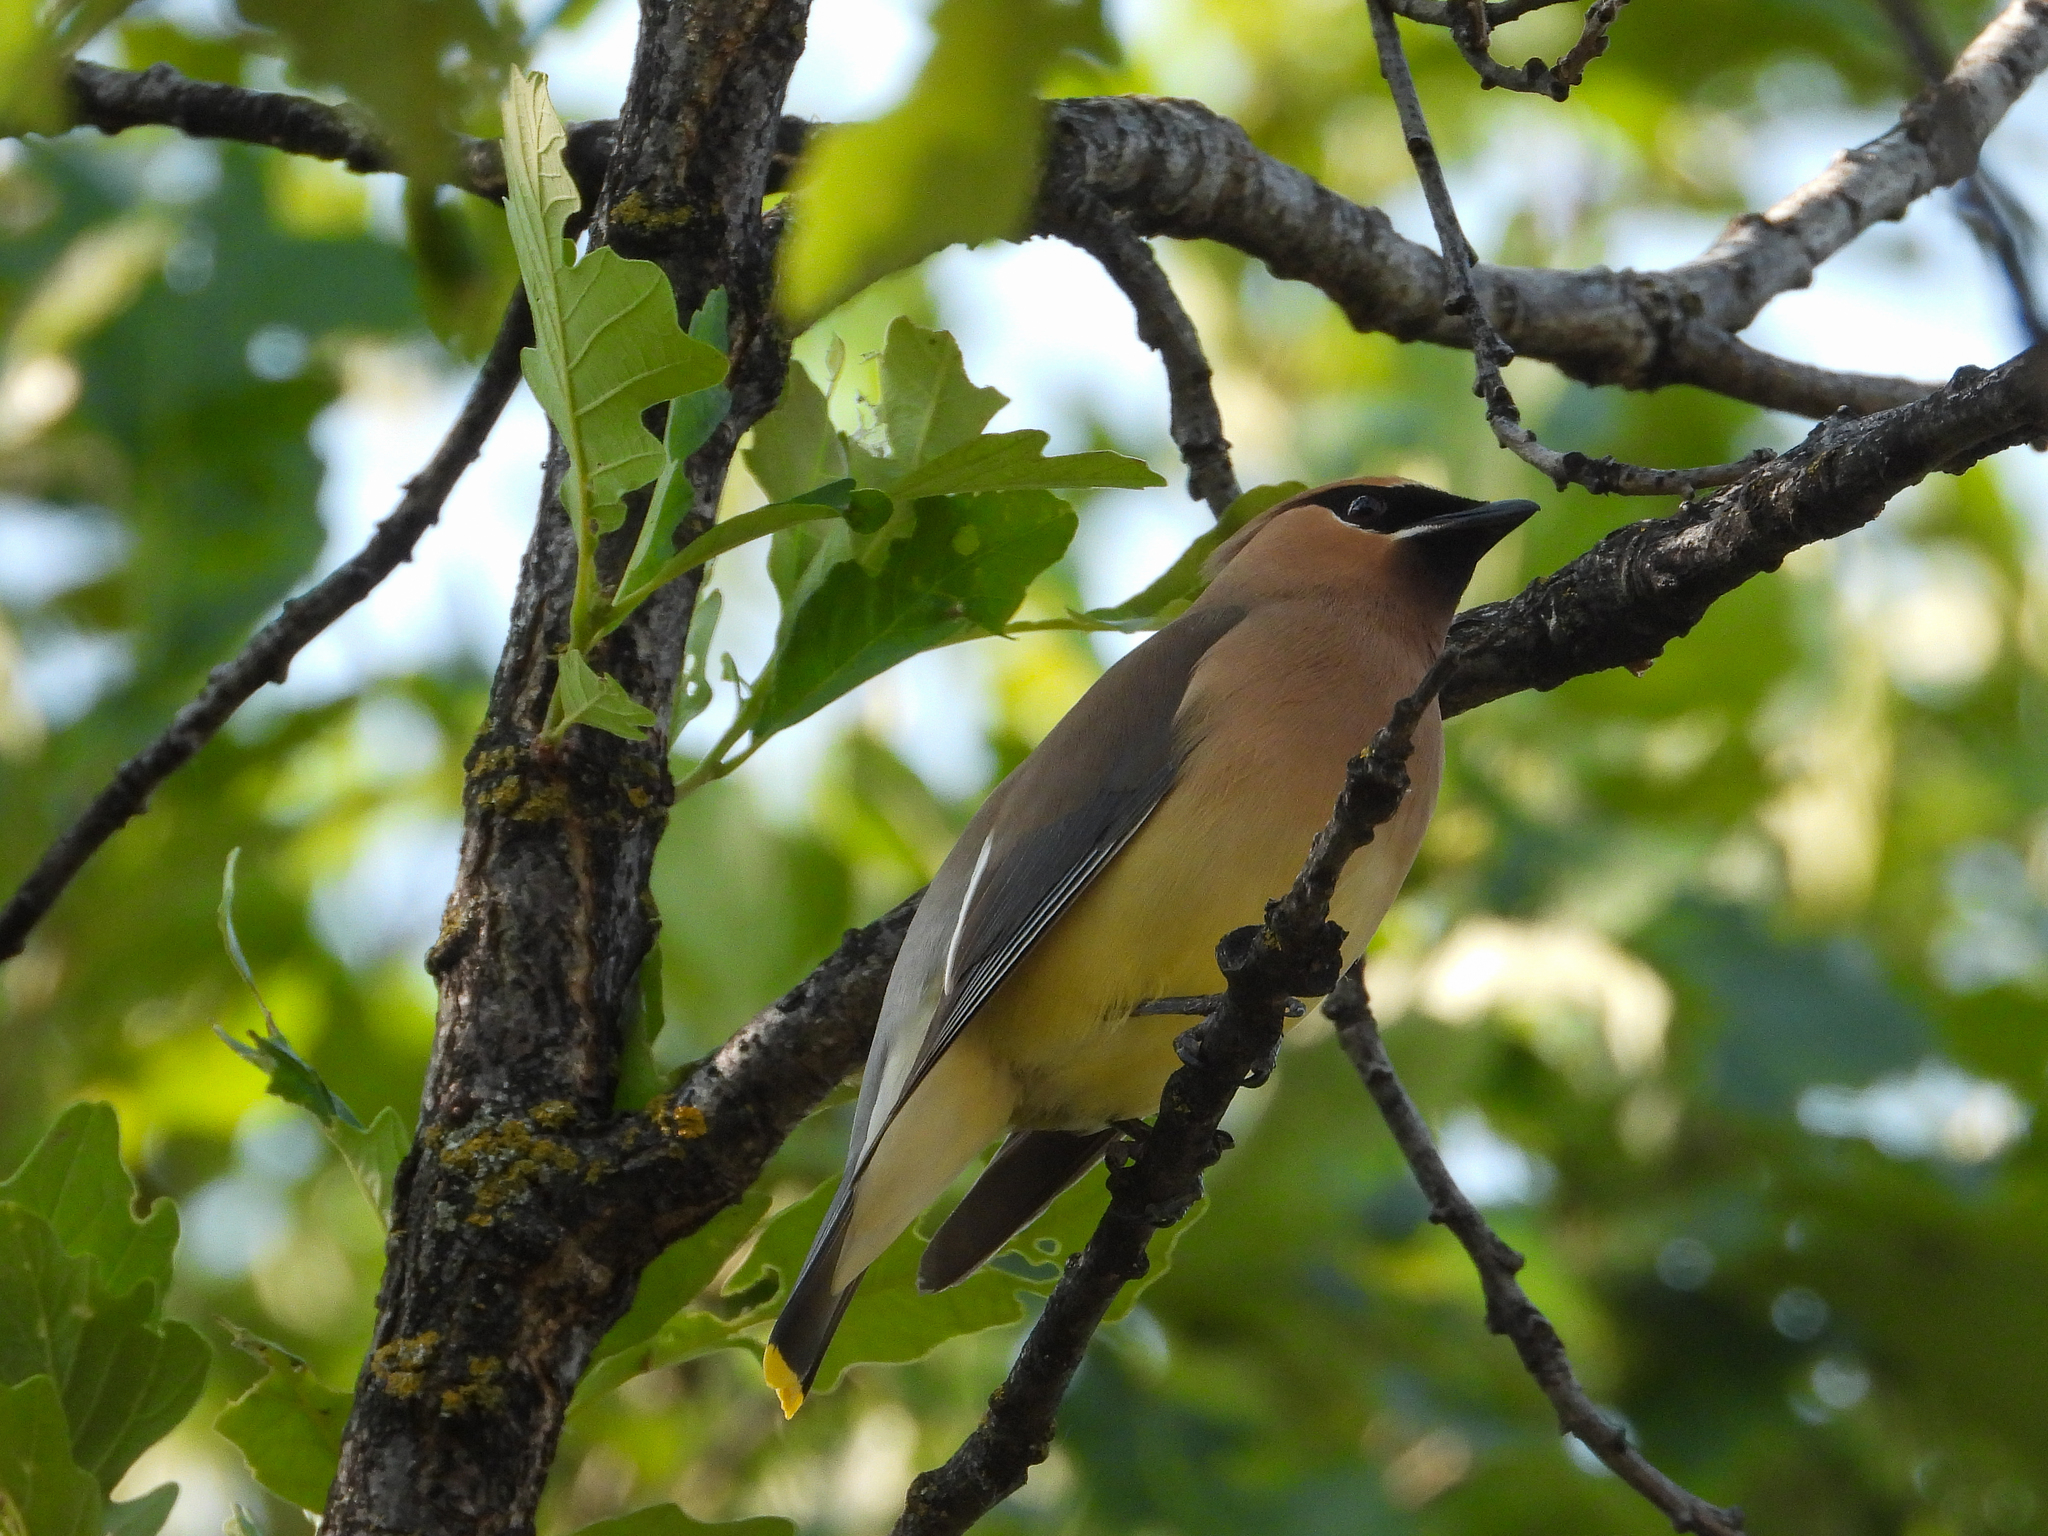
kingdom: Animalia
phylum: Chordata
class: Aves
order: Passeriformes
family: Bombycillidae
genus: Bombycilla
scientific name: Bombycilla cedrorum
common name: Cedar waxwing
